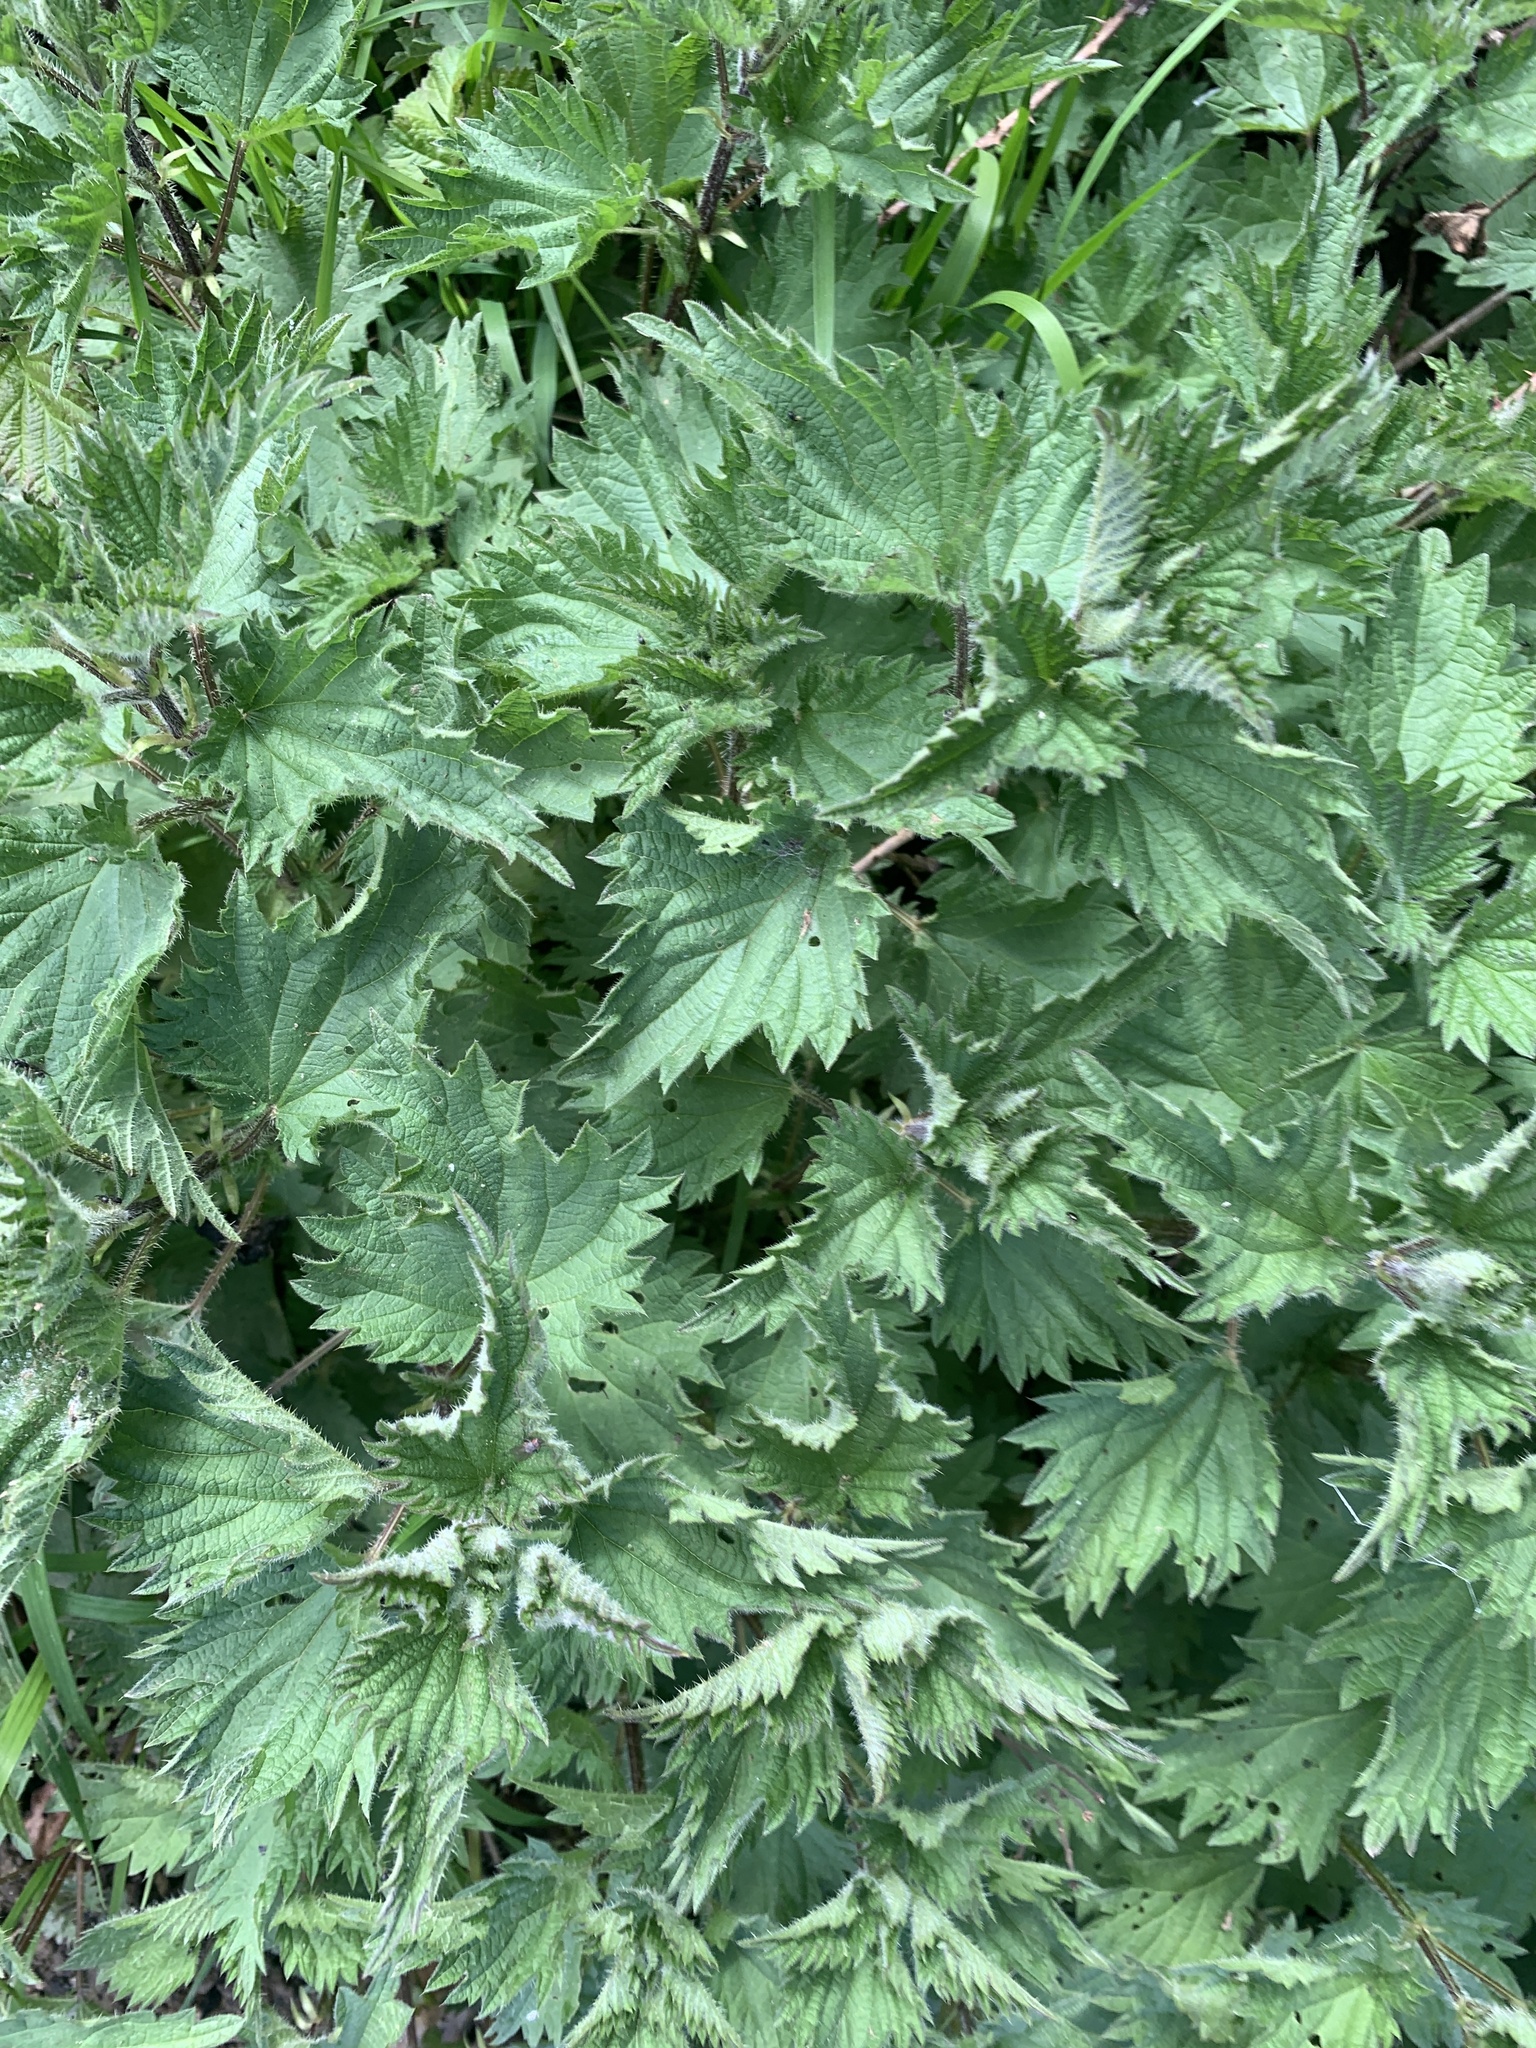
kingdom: Plantae
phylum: Tracheophyta
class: Magnoliopsida
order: Rosales
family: Urticaceae
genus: Urtica
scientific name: Urtica dioica
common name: Common nettle
